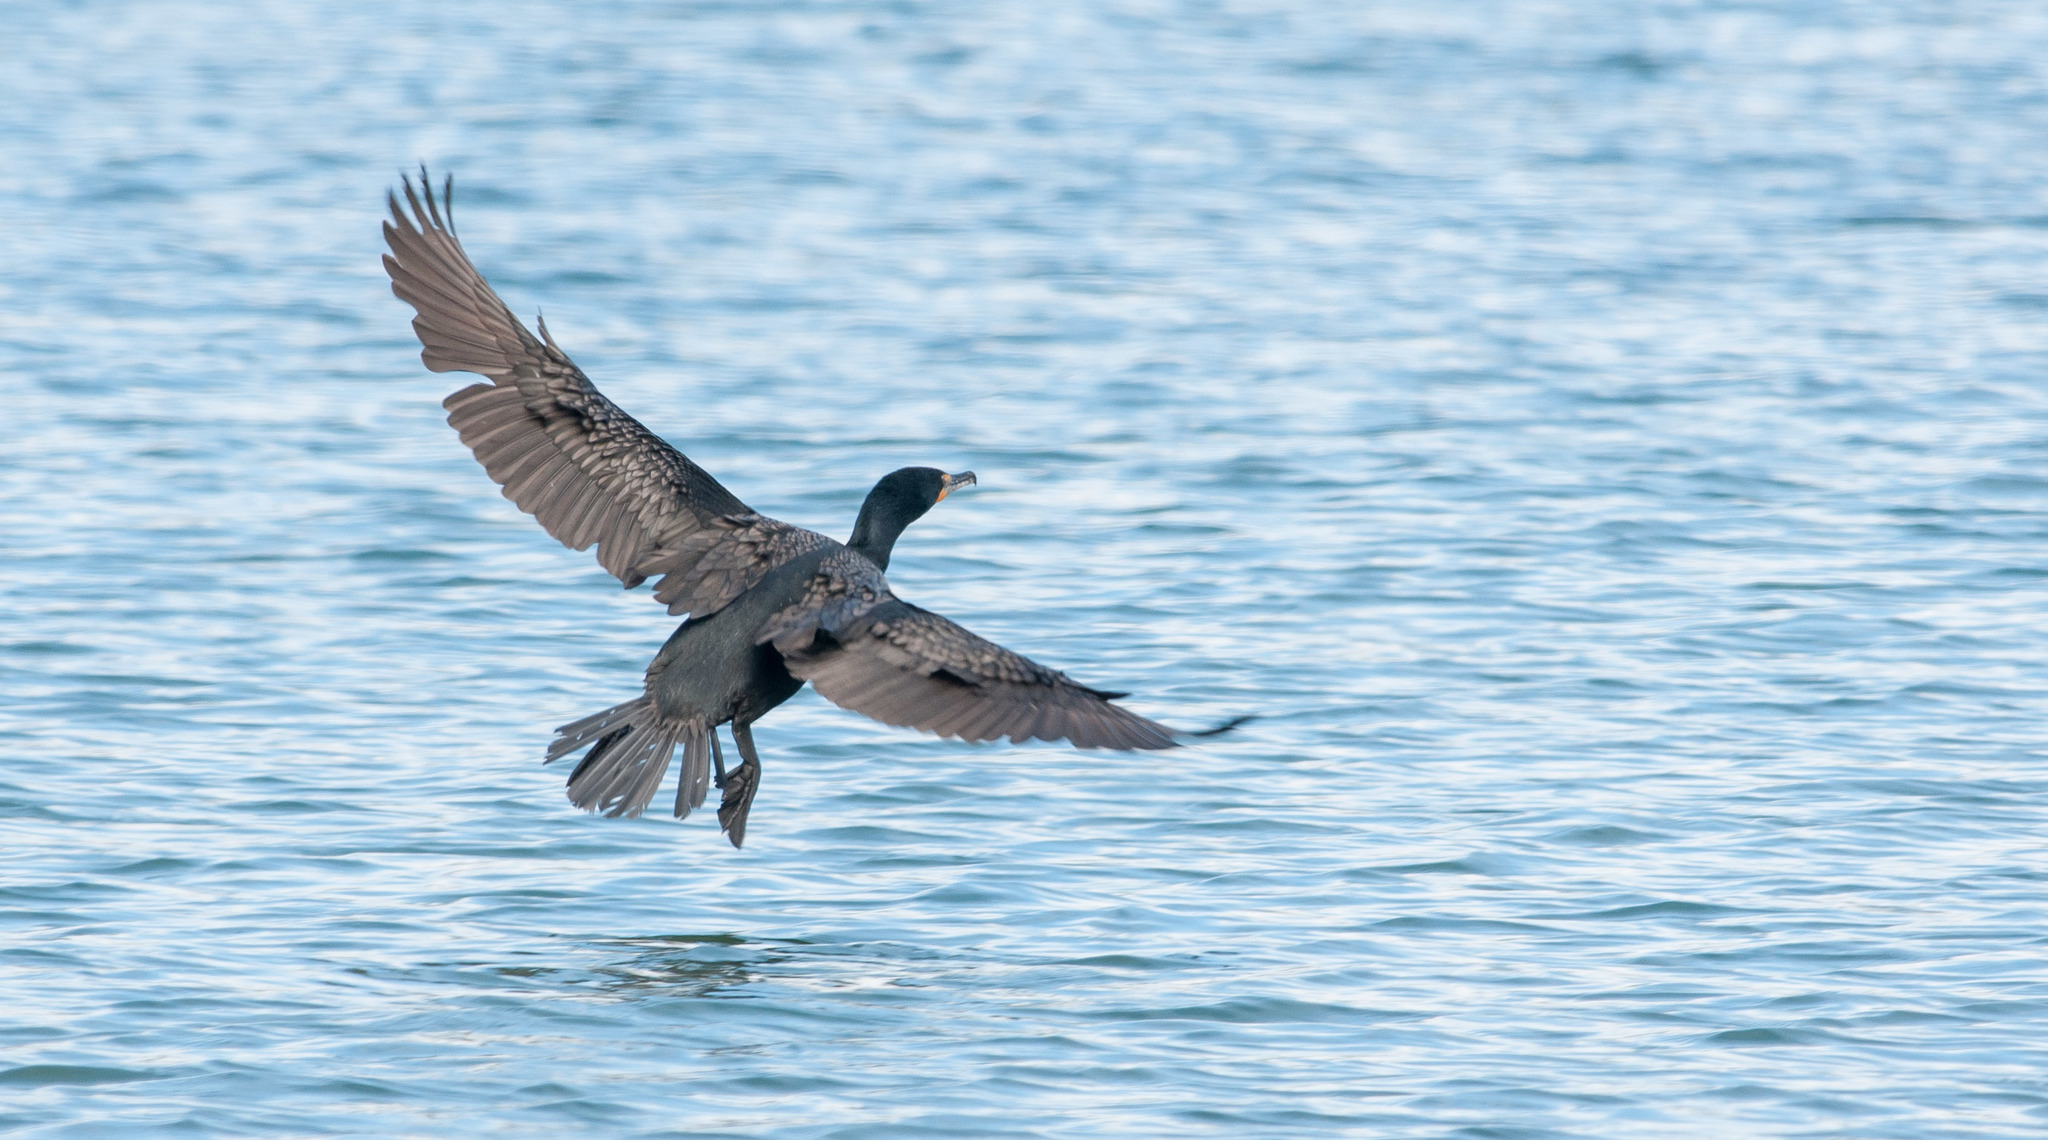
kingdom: Animalia
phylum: Chordata
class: Aves
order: Suliformes
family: Phalacrocoracidae
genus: Phalacrocorax
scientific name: Phalacrocorax auritus
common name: Double-crested cormorant
